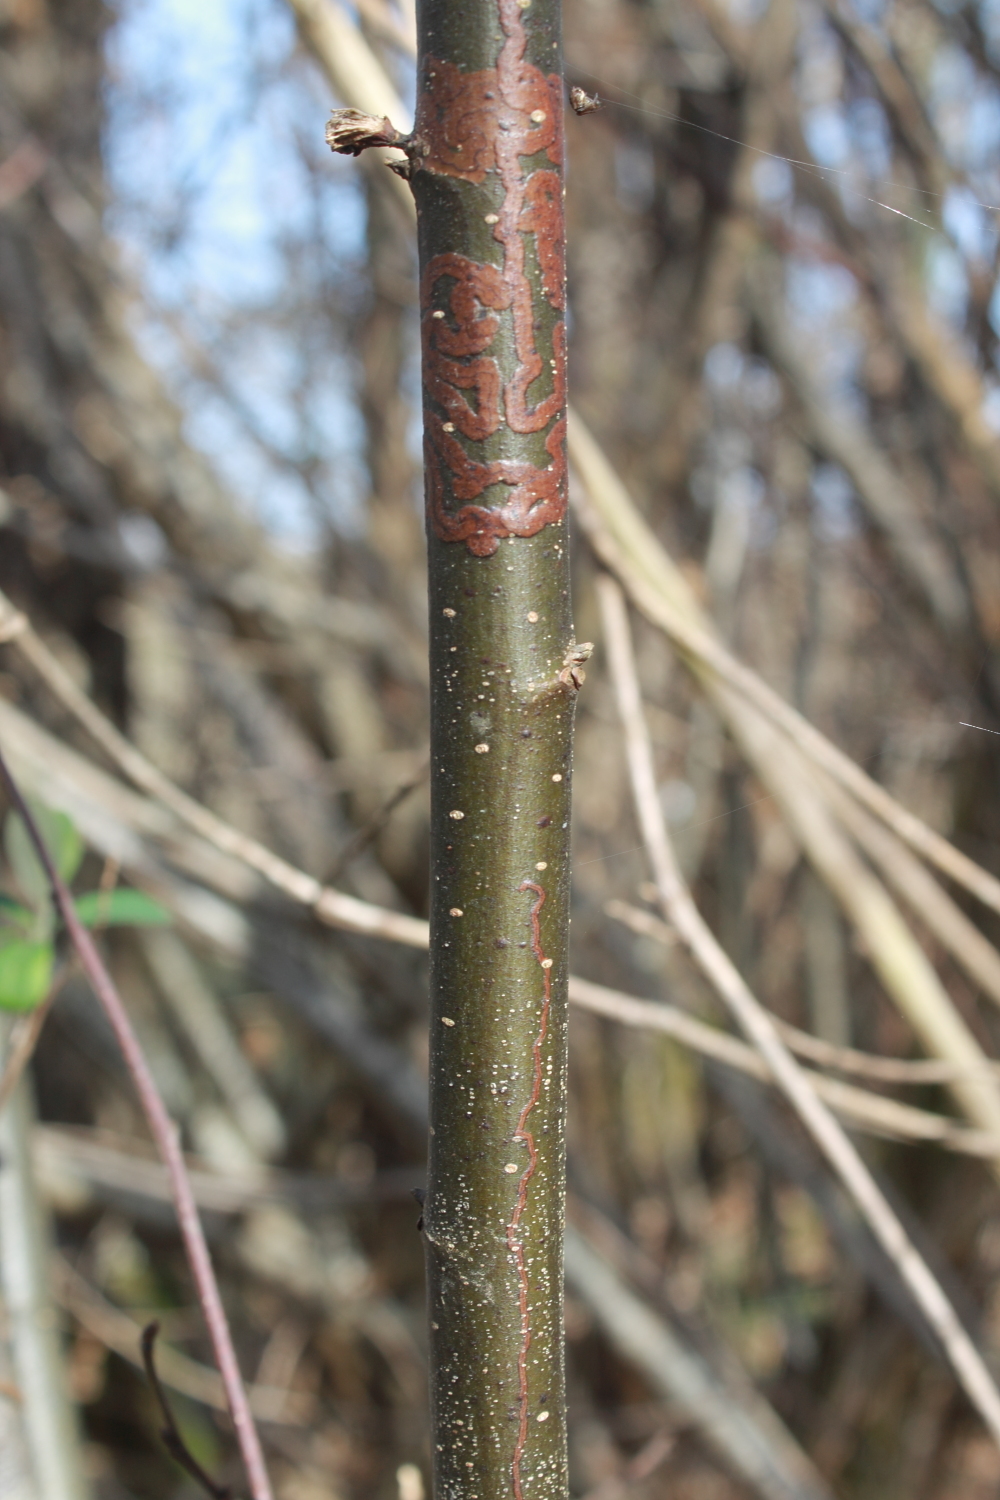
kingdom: Plantae
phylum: Tracheophyta
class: Magnoliopsida
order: Fagales
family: Fagaceae
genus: Castanea
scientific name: Castanea sativa
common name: Sweet chestnut
